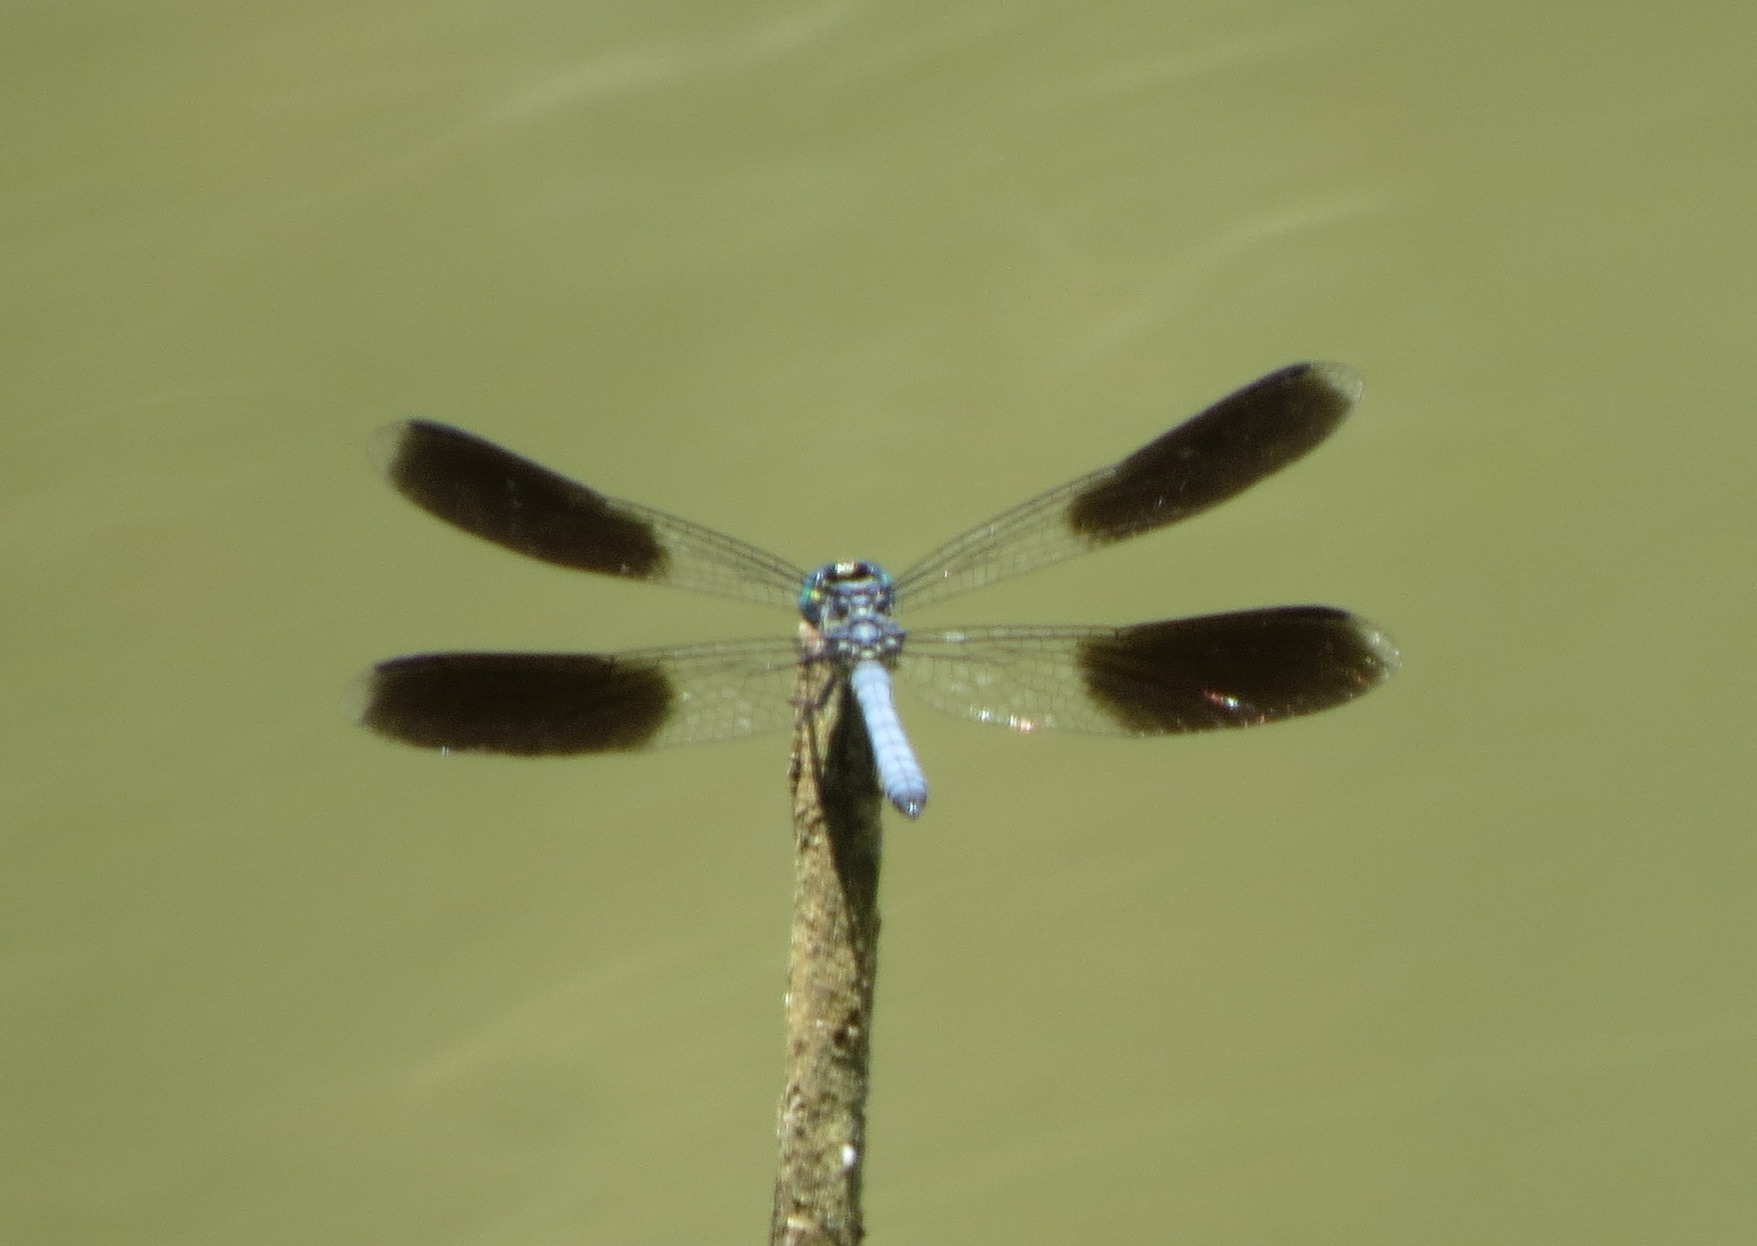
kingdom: Animalia
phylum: Arthropoda
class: Insecta
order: Odonata
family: Libellulidae
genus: Tetrathemis
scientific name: Tetrathemis polleni
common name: Black-splashed elf
